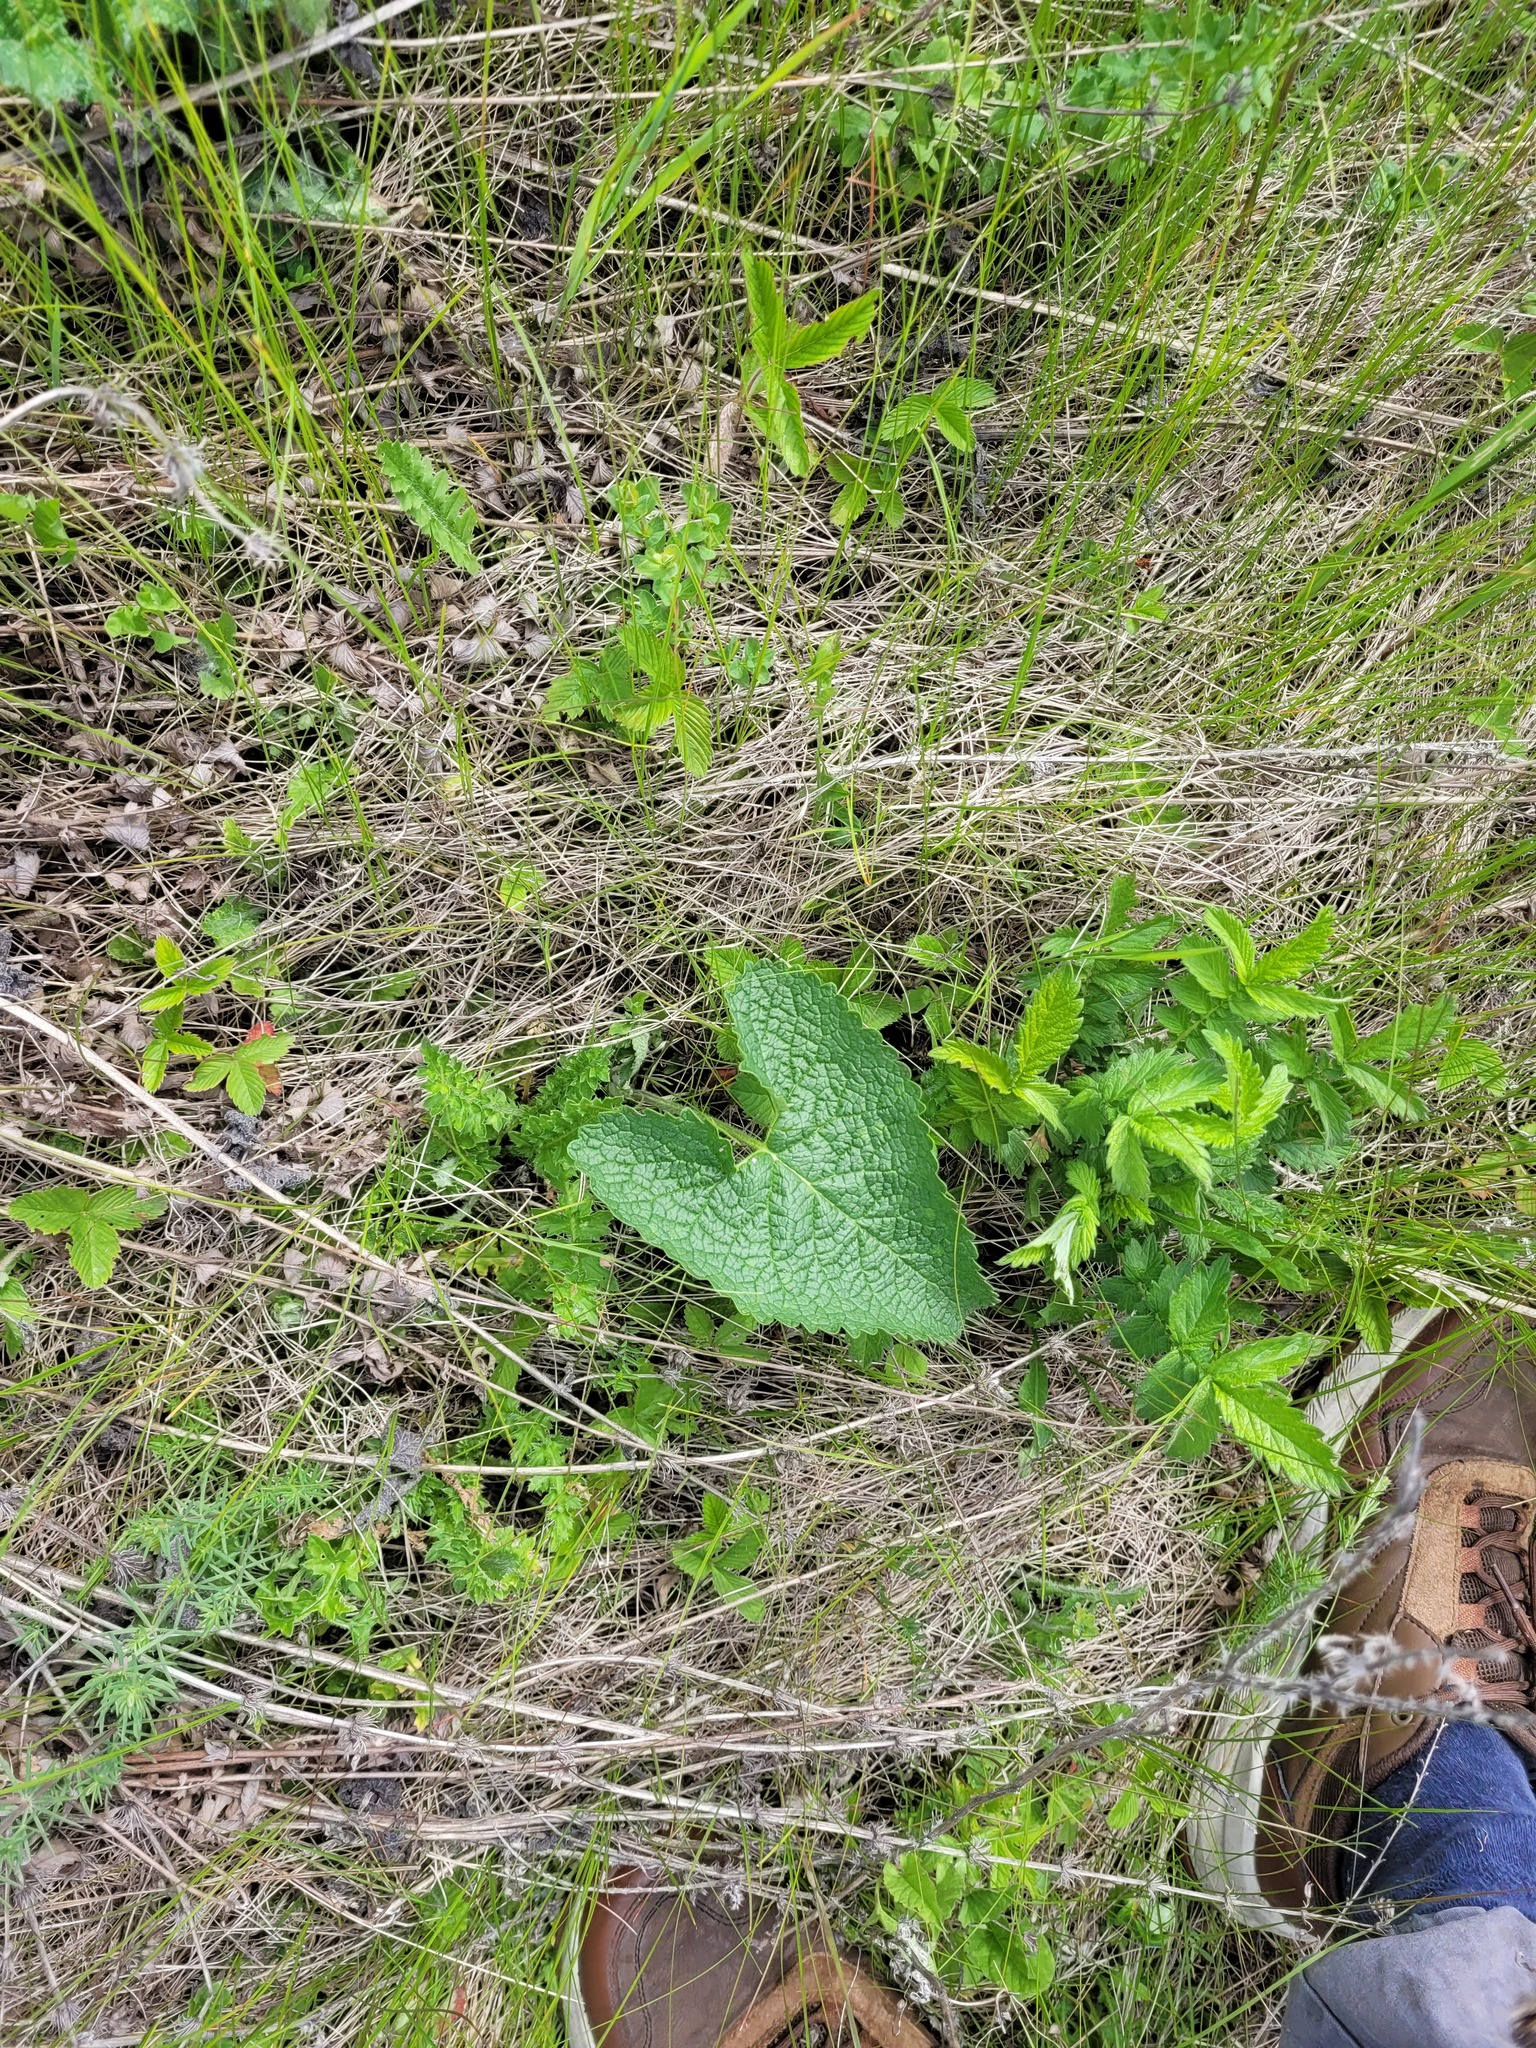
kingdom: Plantae
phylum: Tracheophyta
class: Magnoliopsida
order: Lamiales
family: Lamiaceae
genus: Phlomoides
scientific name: Phlomoides tuberosa
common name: Tuberous jerusalem sage
